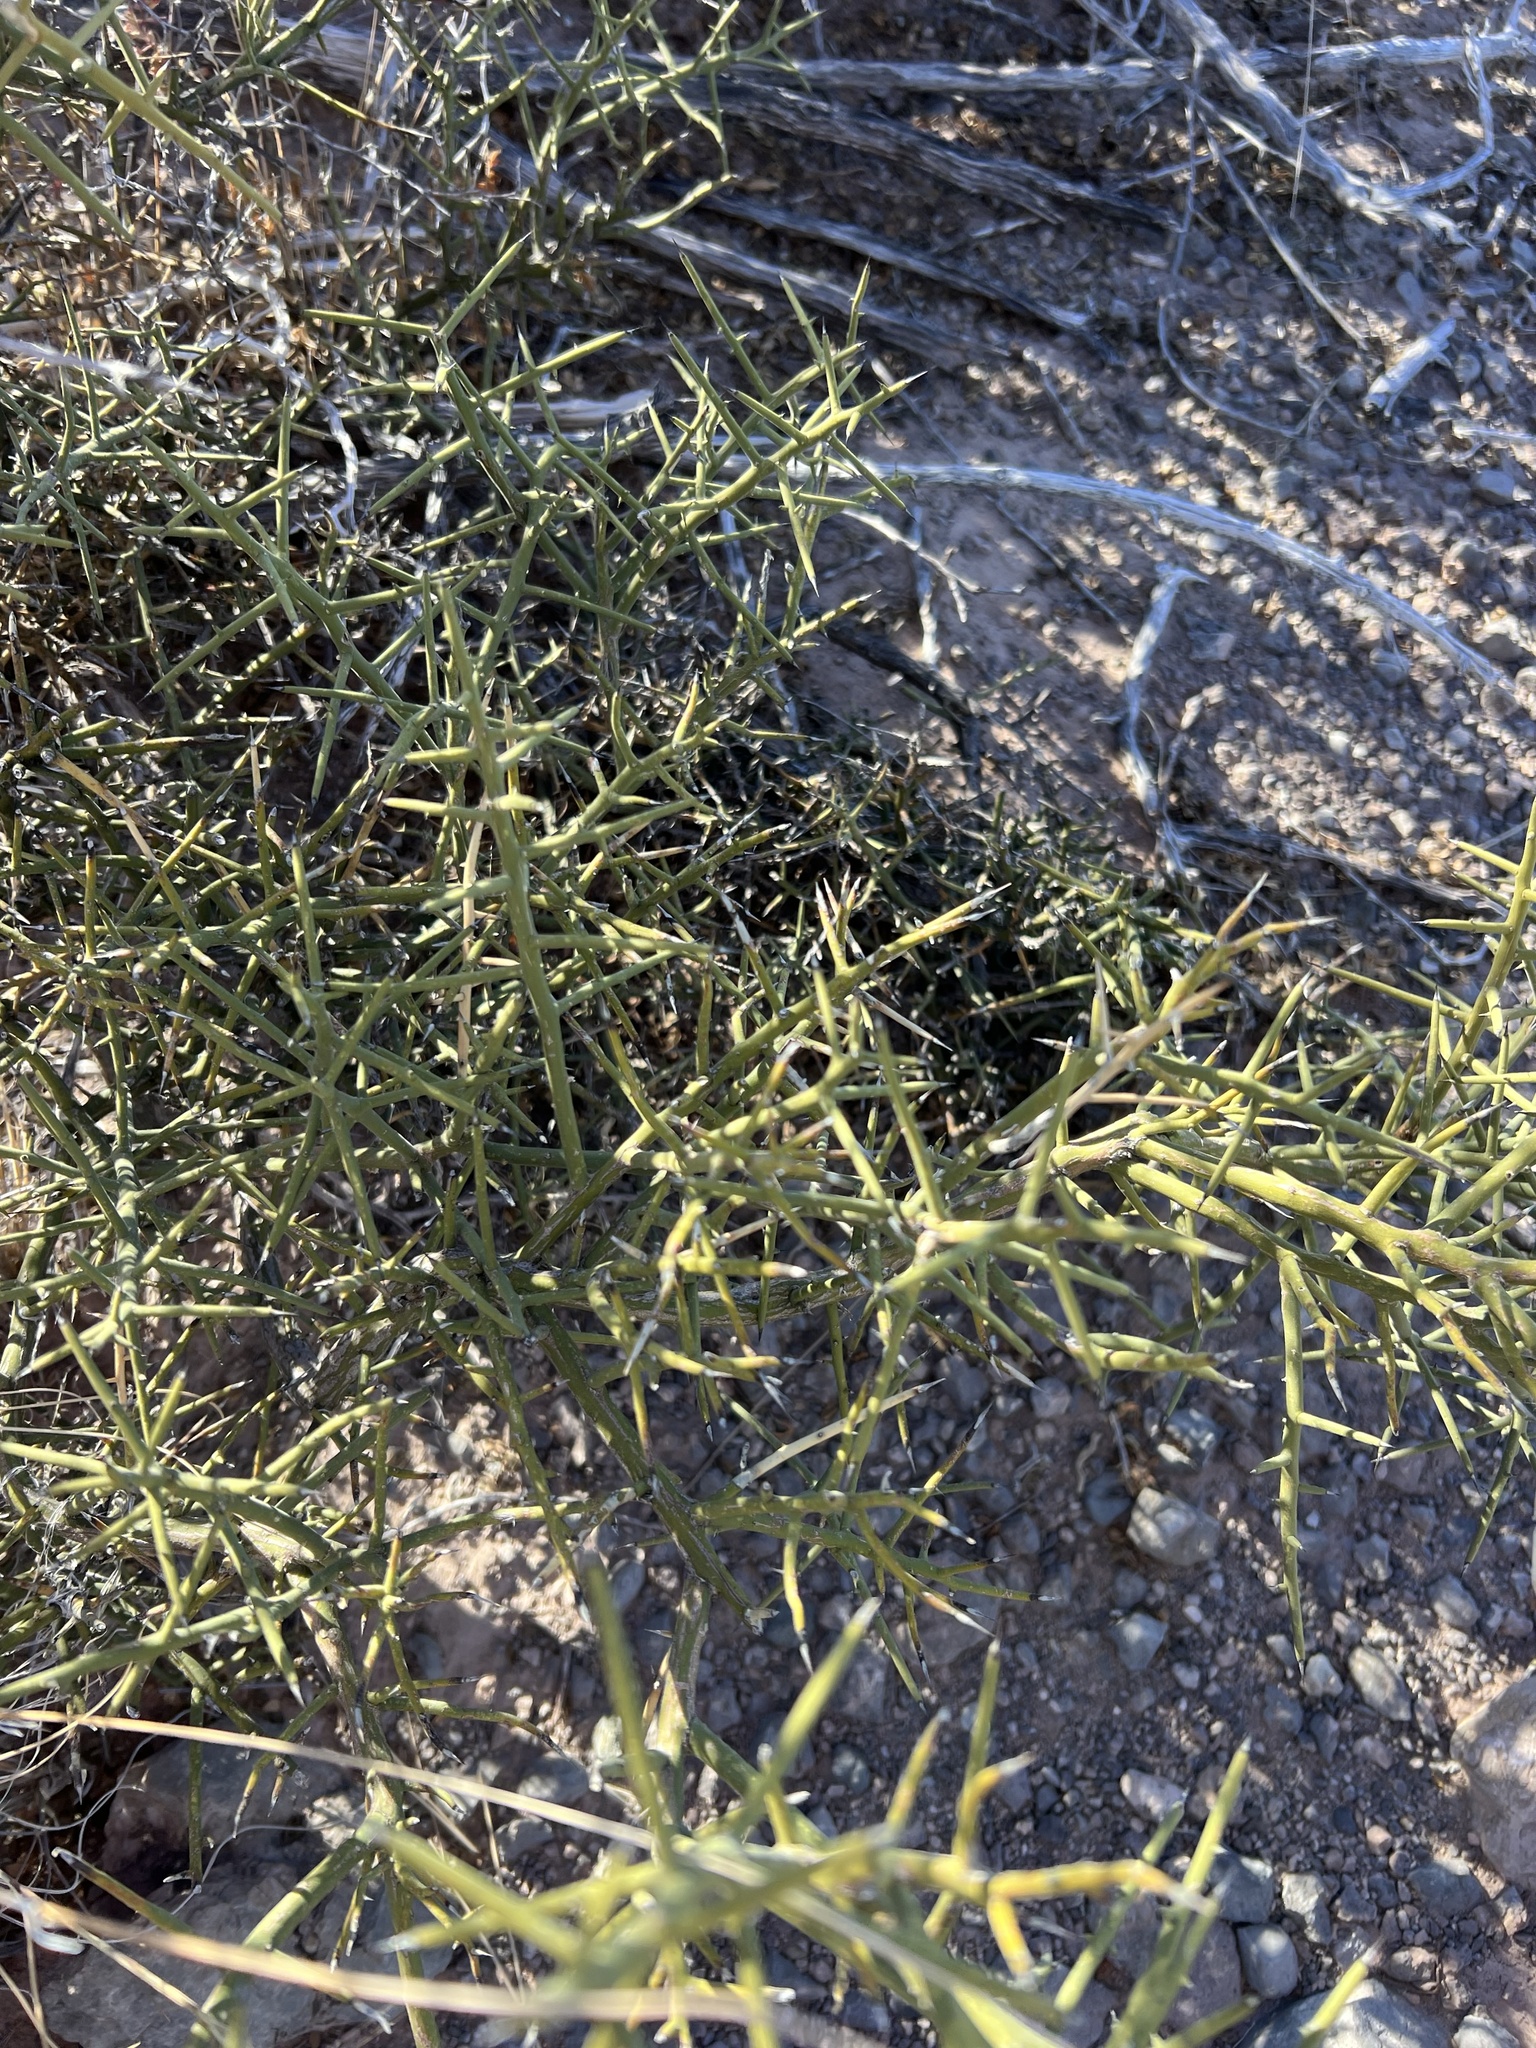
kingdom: Plantae
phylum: Tracheophyta
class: Magnoliopsida
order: Brassicales
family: Koeberliniaceae
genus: Koeberlinia
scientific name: Koeberlinia spinosa
